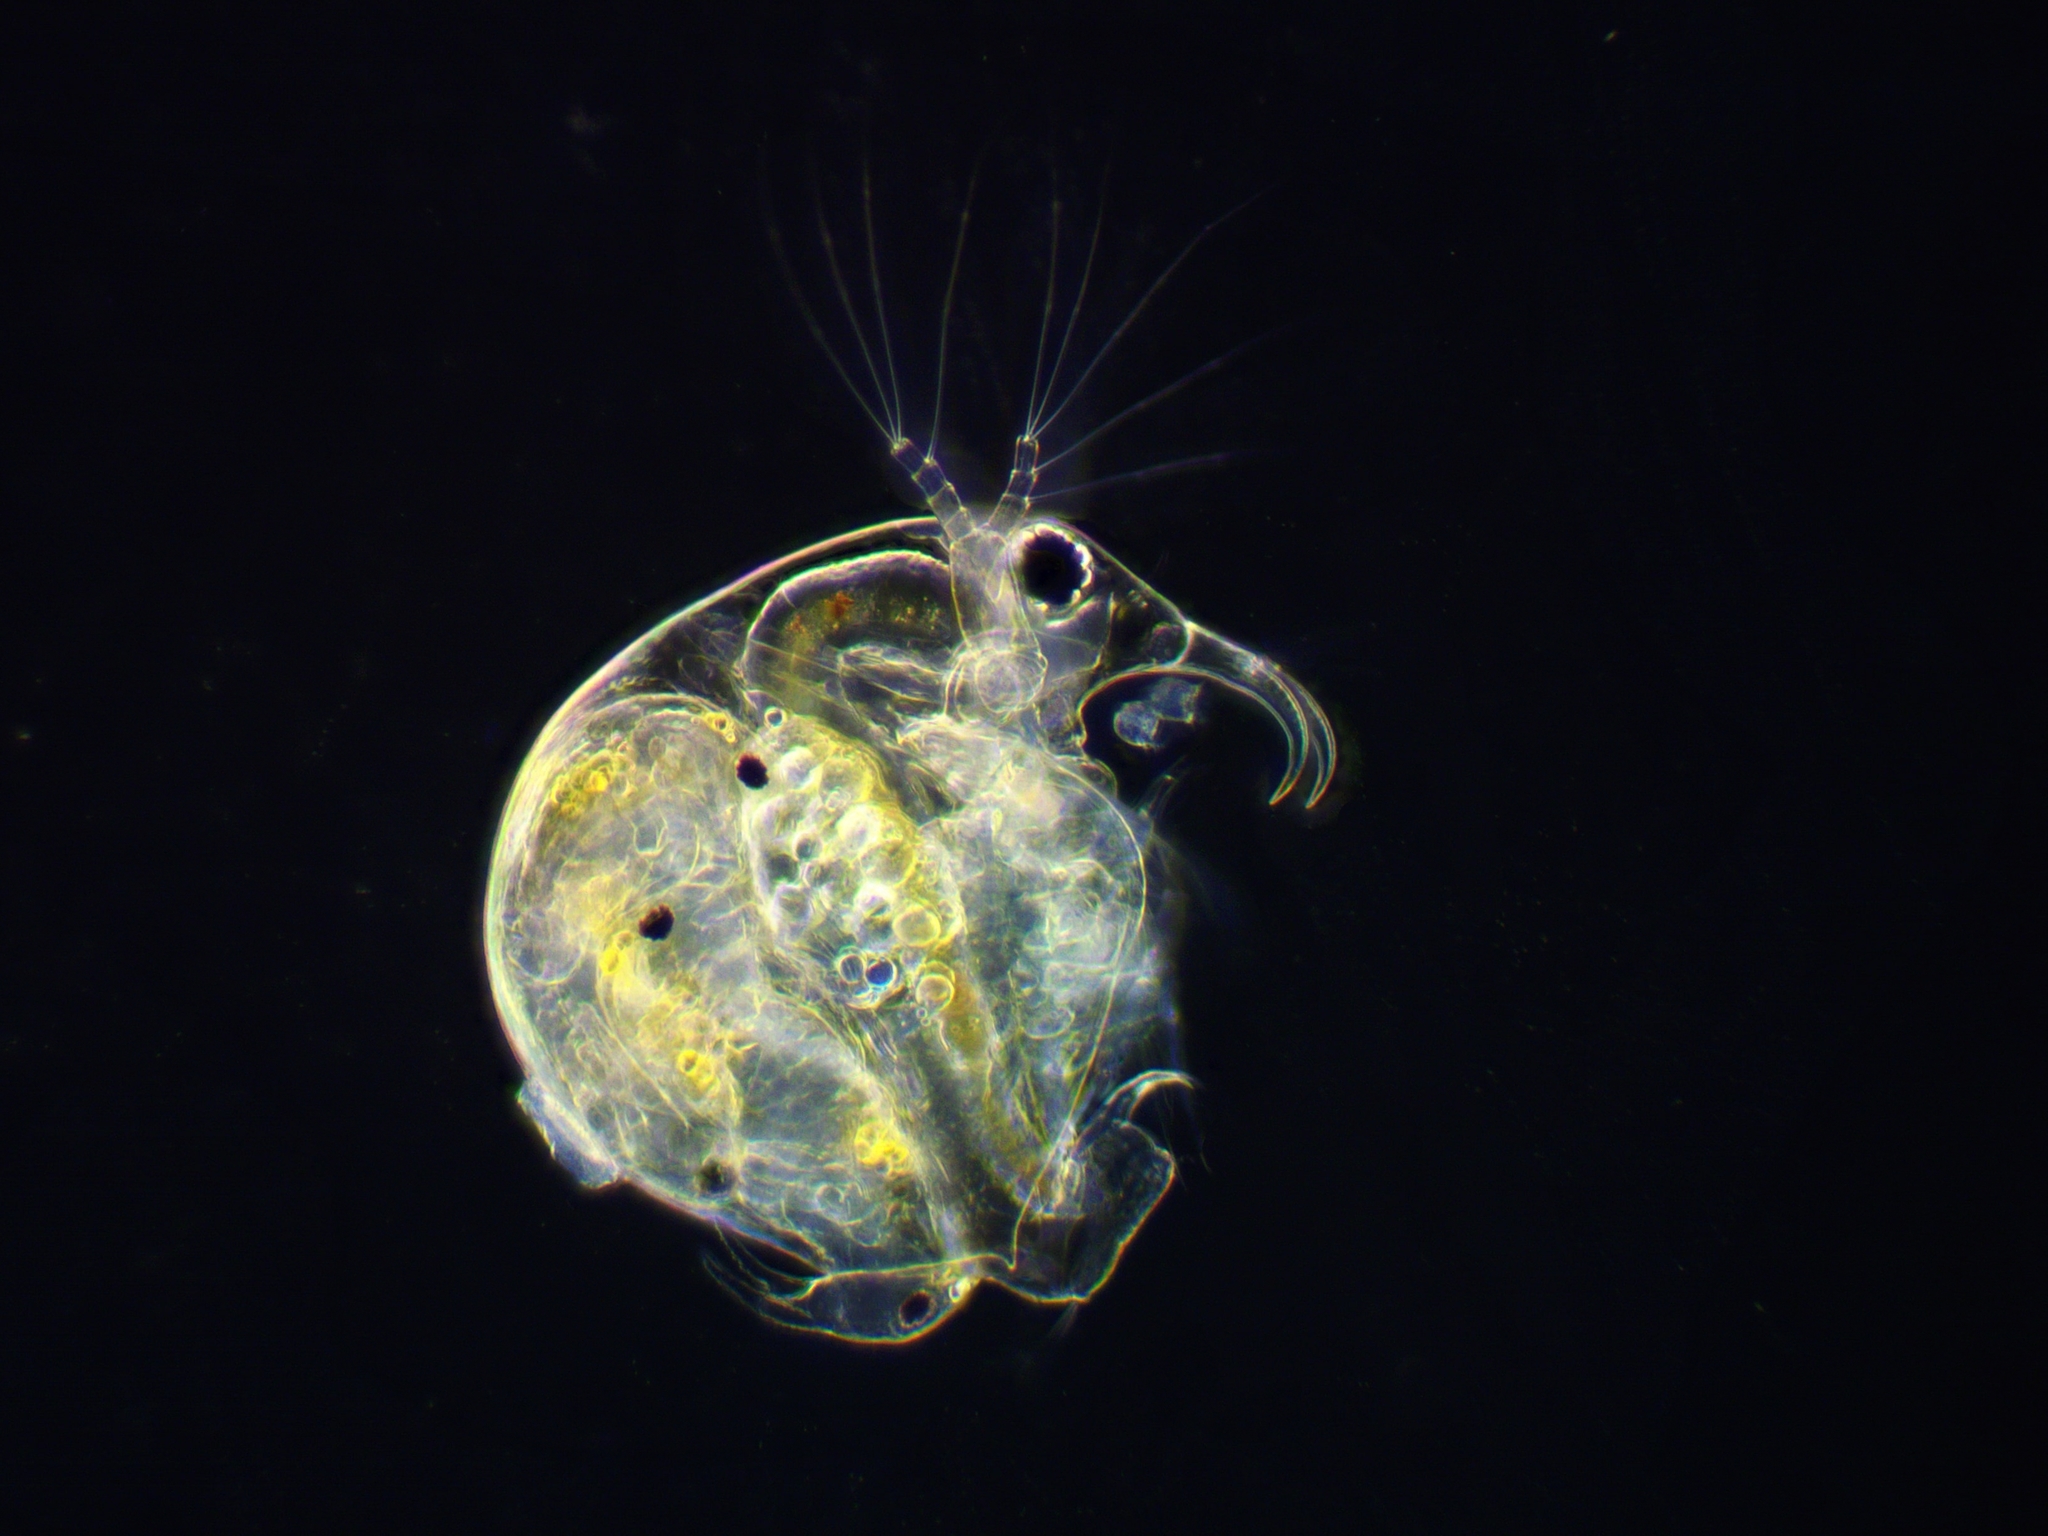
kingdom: Animalia
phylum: Arthropoda
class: Branchiopoda
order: Diplostraca
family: Bosminidae
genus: Bosmina
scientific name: Bosmina longirostris
